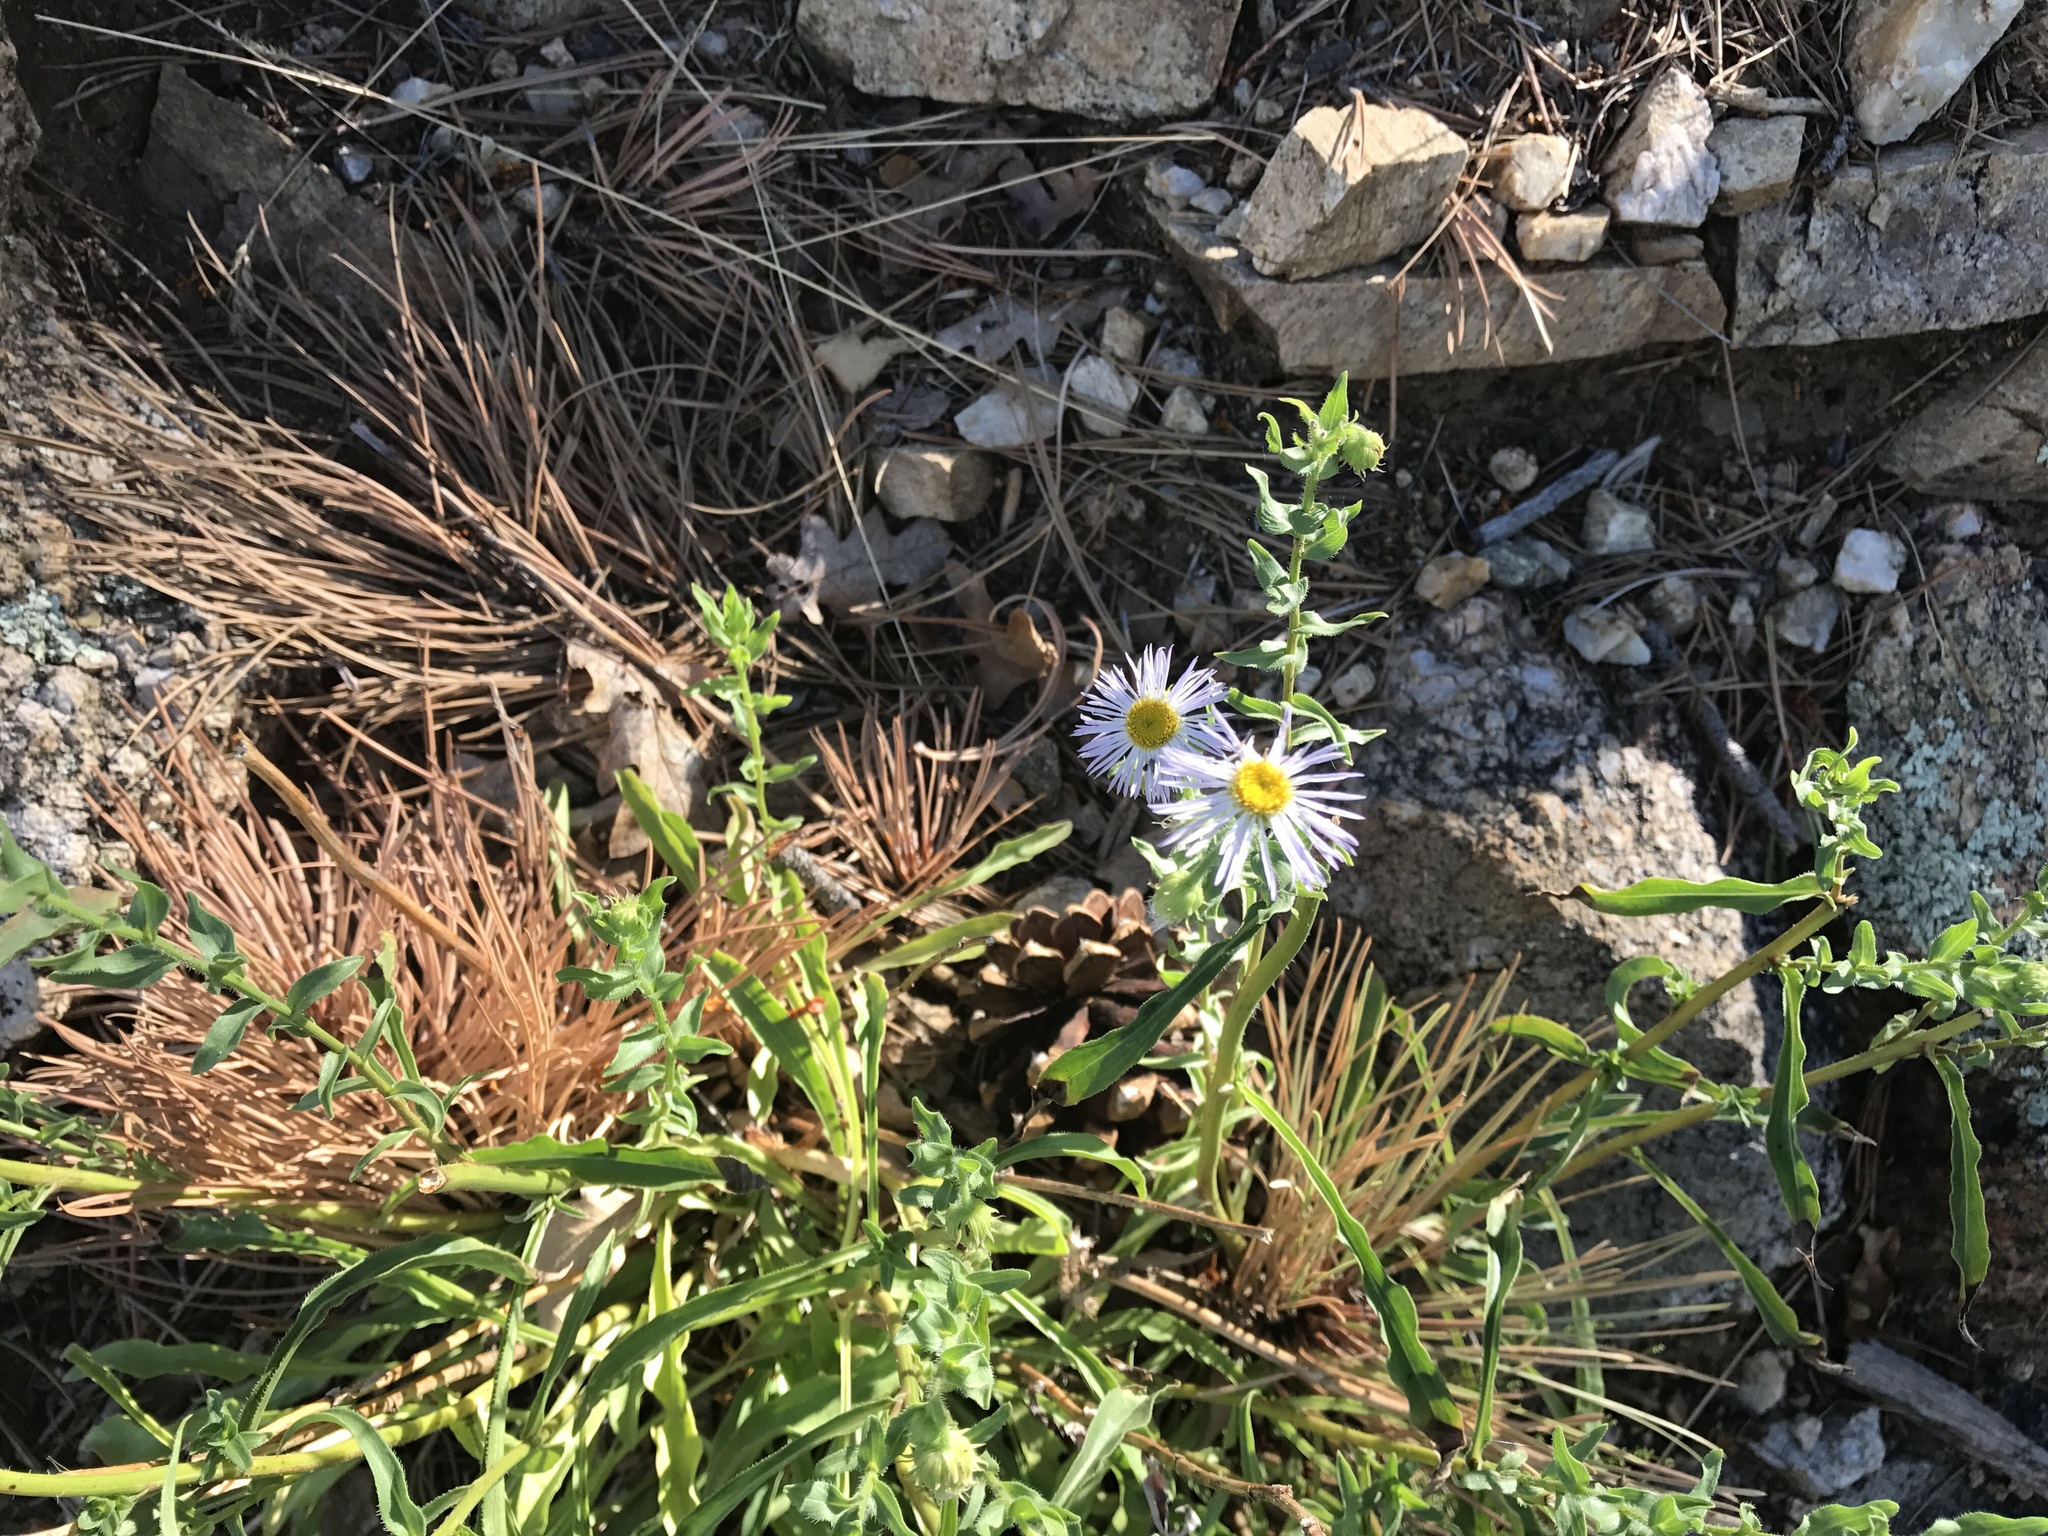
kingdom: Plantae
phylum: Tracheophyta
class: Magnoliopsida
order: Asterales
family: Asteraceae
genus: Erigeron
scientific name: Erigeron speciosus
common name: Aspen fleabane
